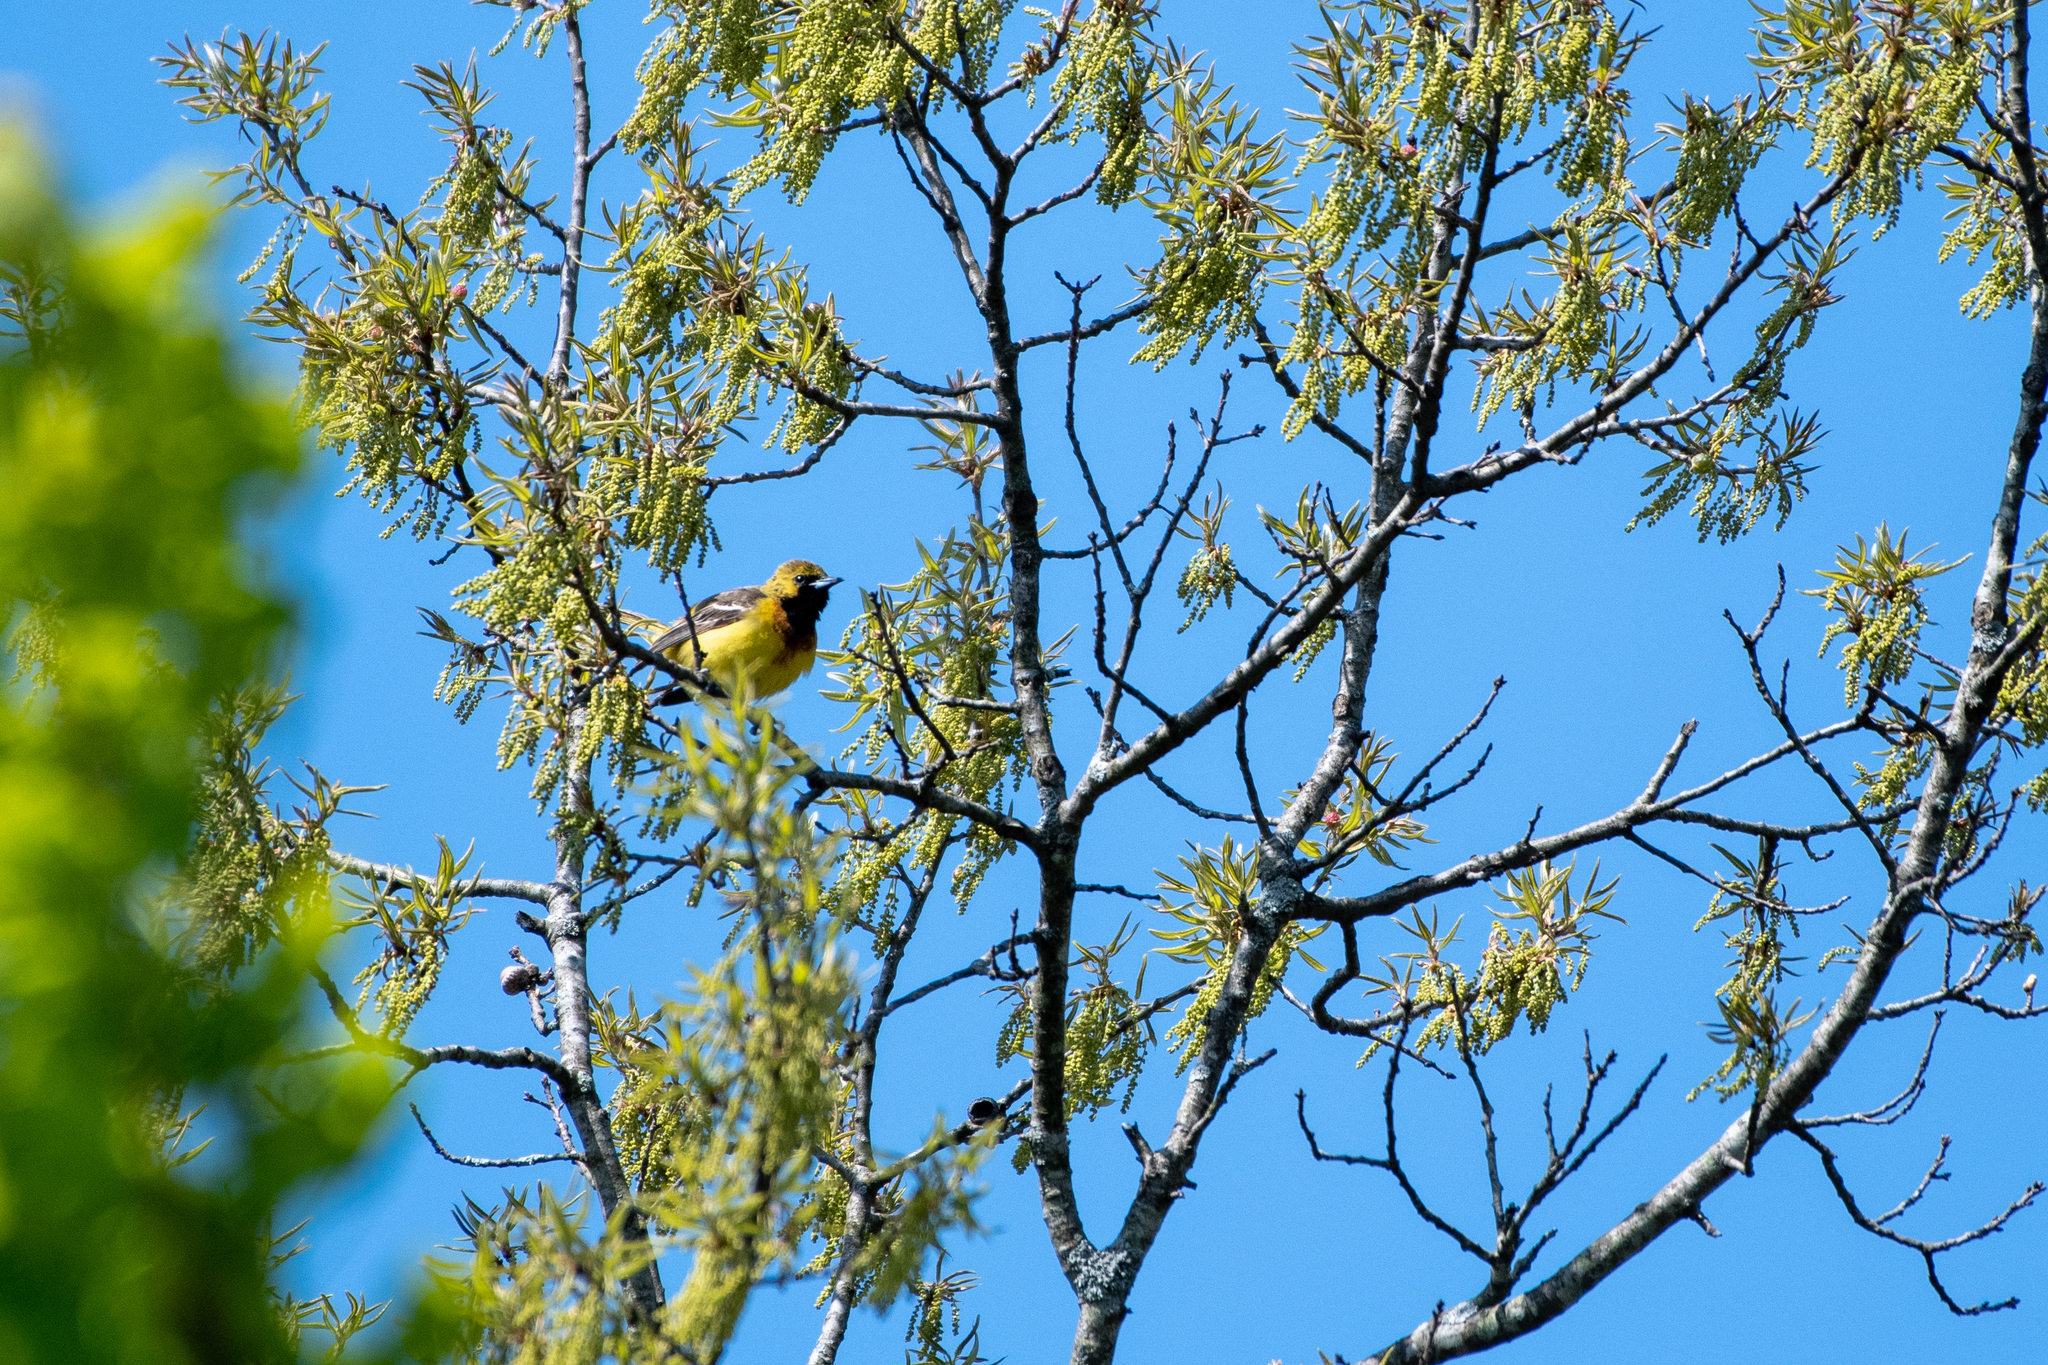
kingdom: Animalia
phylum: Chordata
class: Aves
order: Passeriformes
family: Icteridae
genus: Icterus
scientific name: Icterus spurius
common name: Orchard oriole
